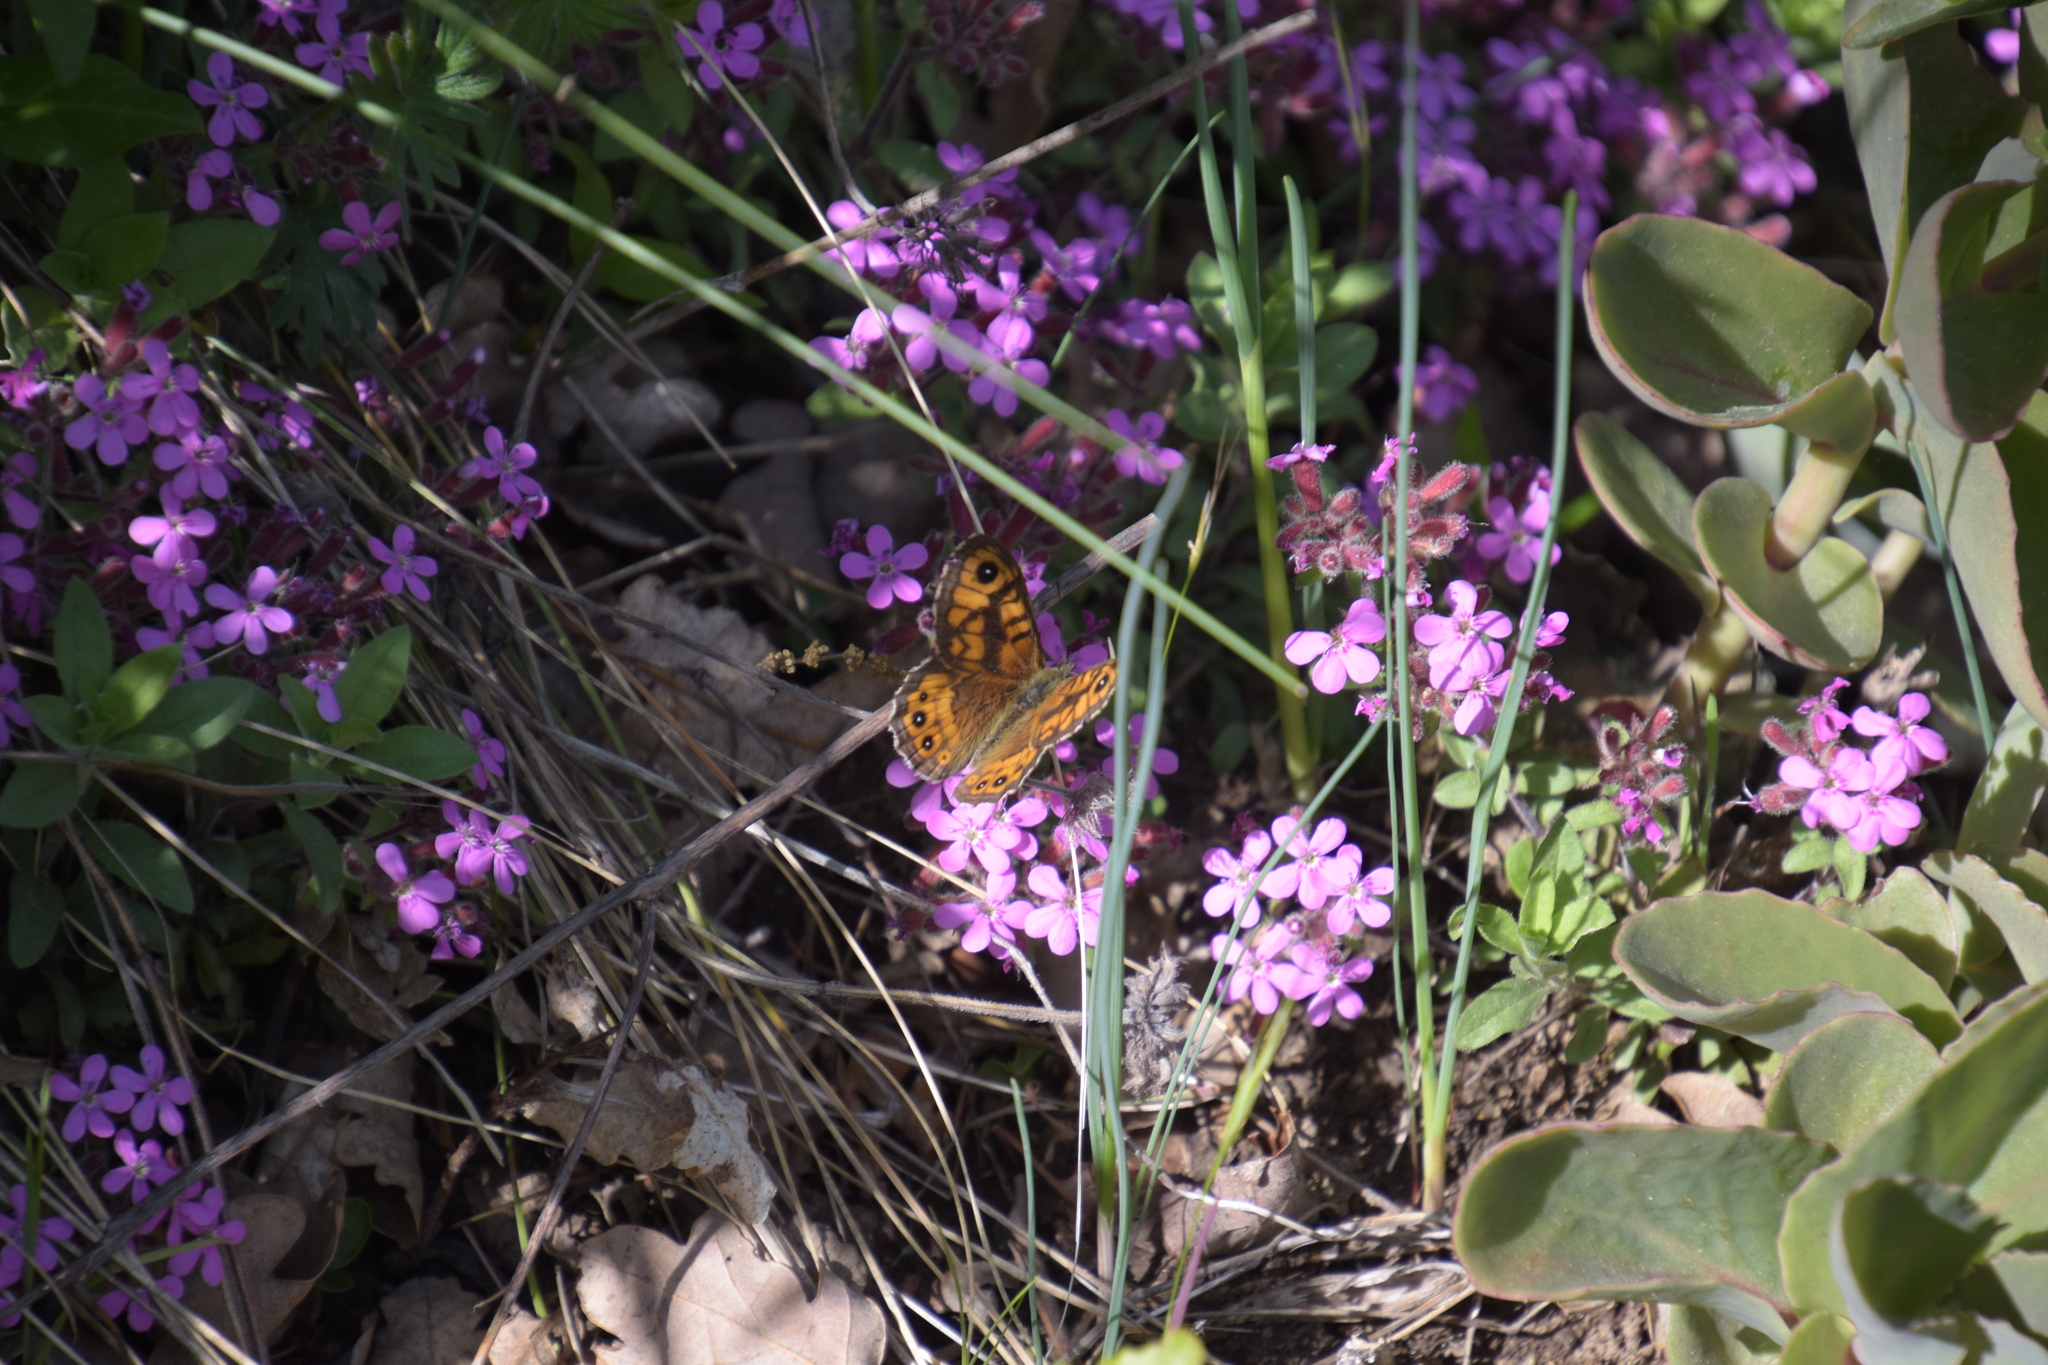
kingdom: Animalia
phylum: Arthropoda
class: Insecta
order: Lepidoptera
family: Nymphalidae
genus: Pararge
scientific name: Pararge Lasiommata megera
